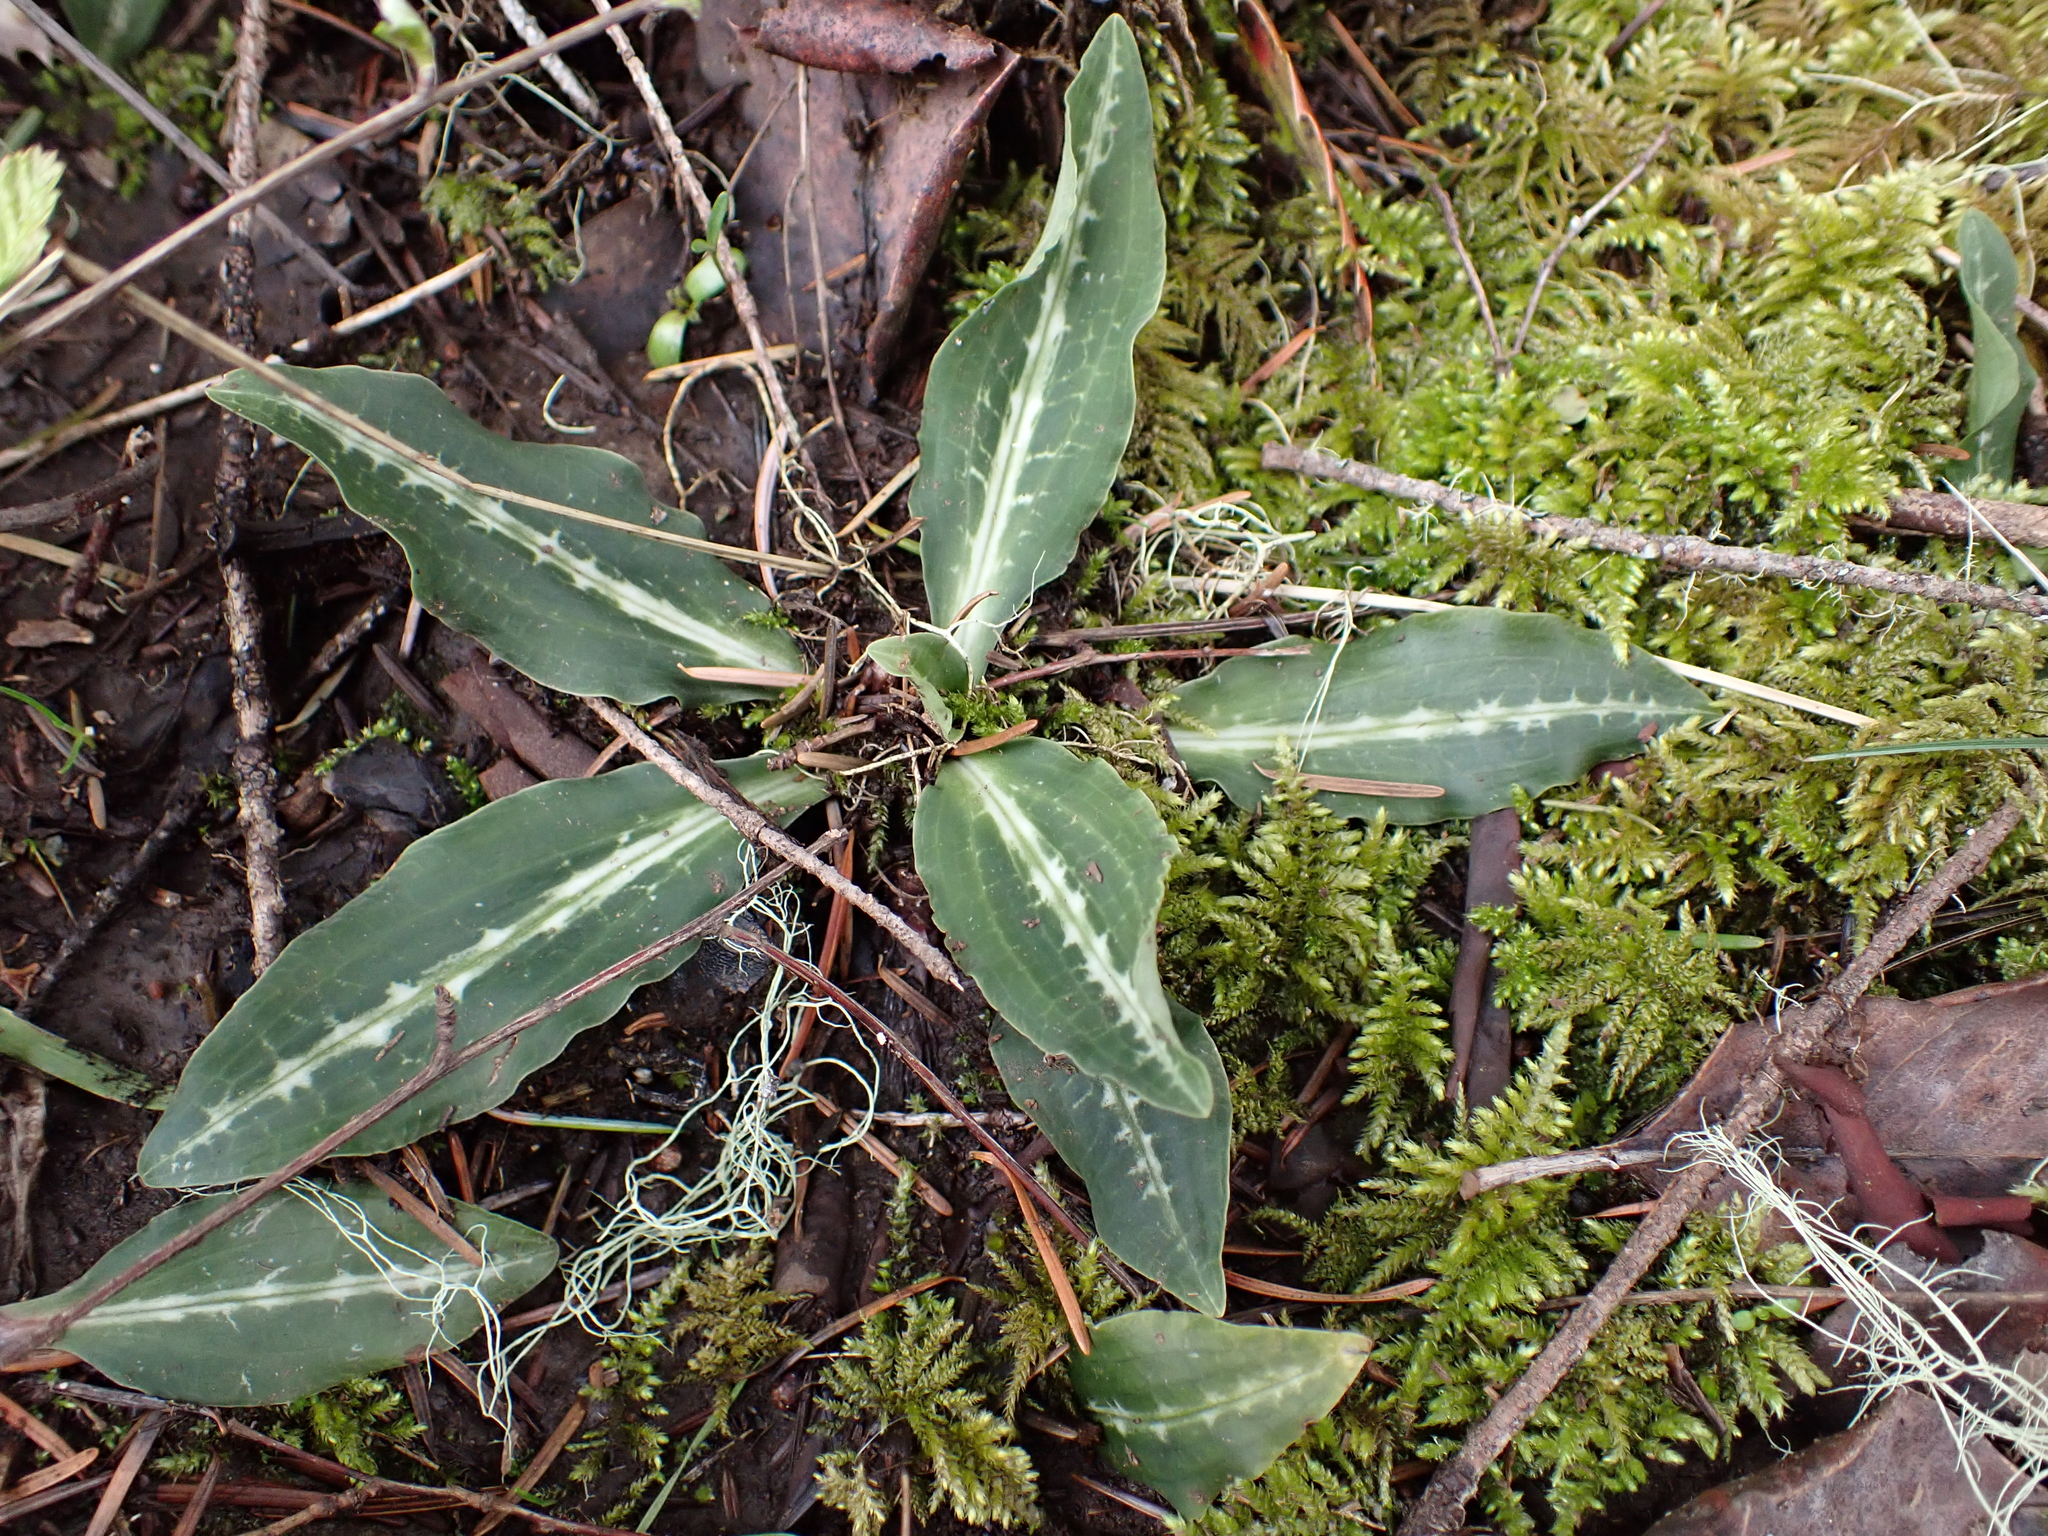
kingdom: Plantae
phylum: Tracheophyta
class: Liliopsida
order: Asparagales
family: Orchidaceae
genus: Goodyera
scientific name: Goodyera oblongifolia
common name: Giant rattlesnake-plantain
